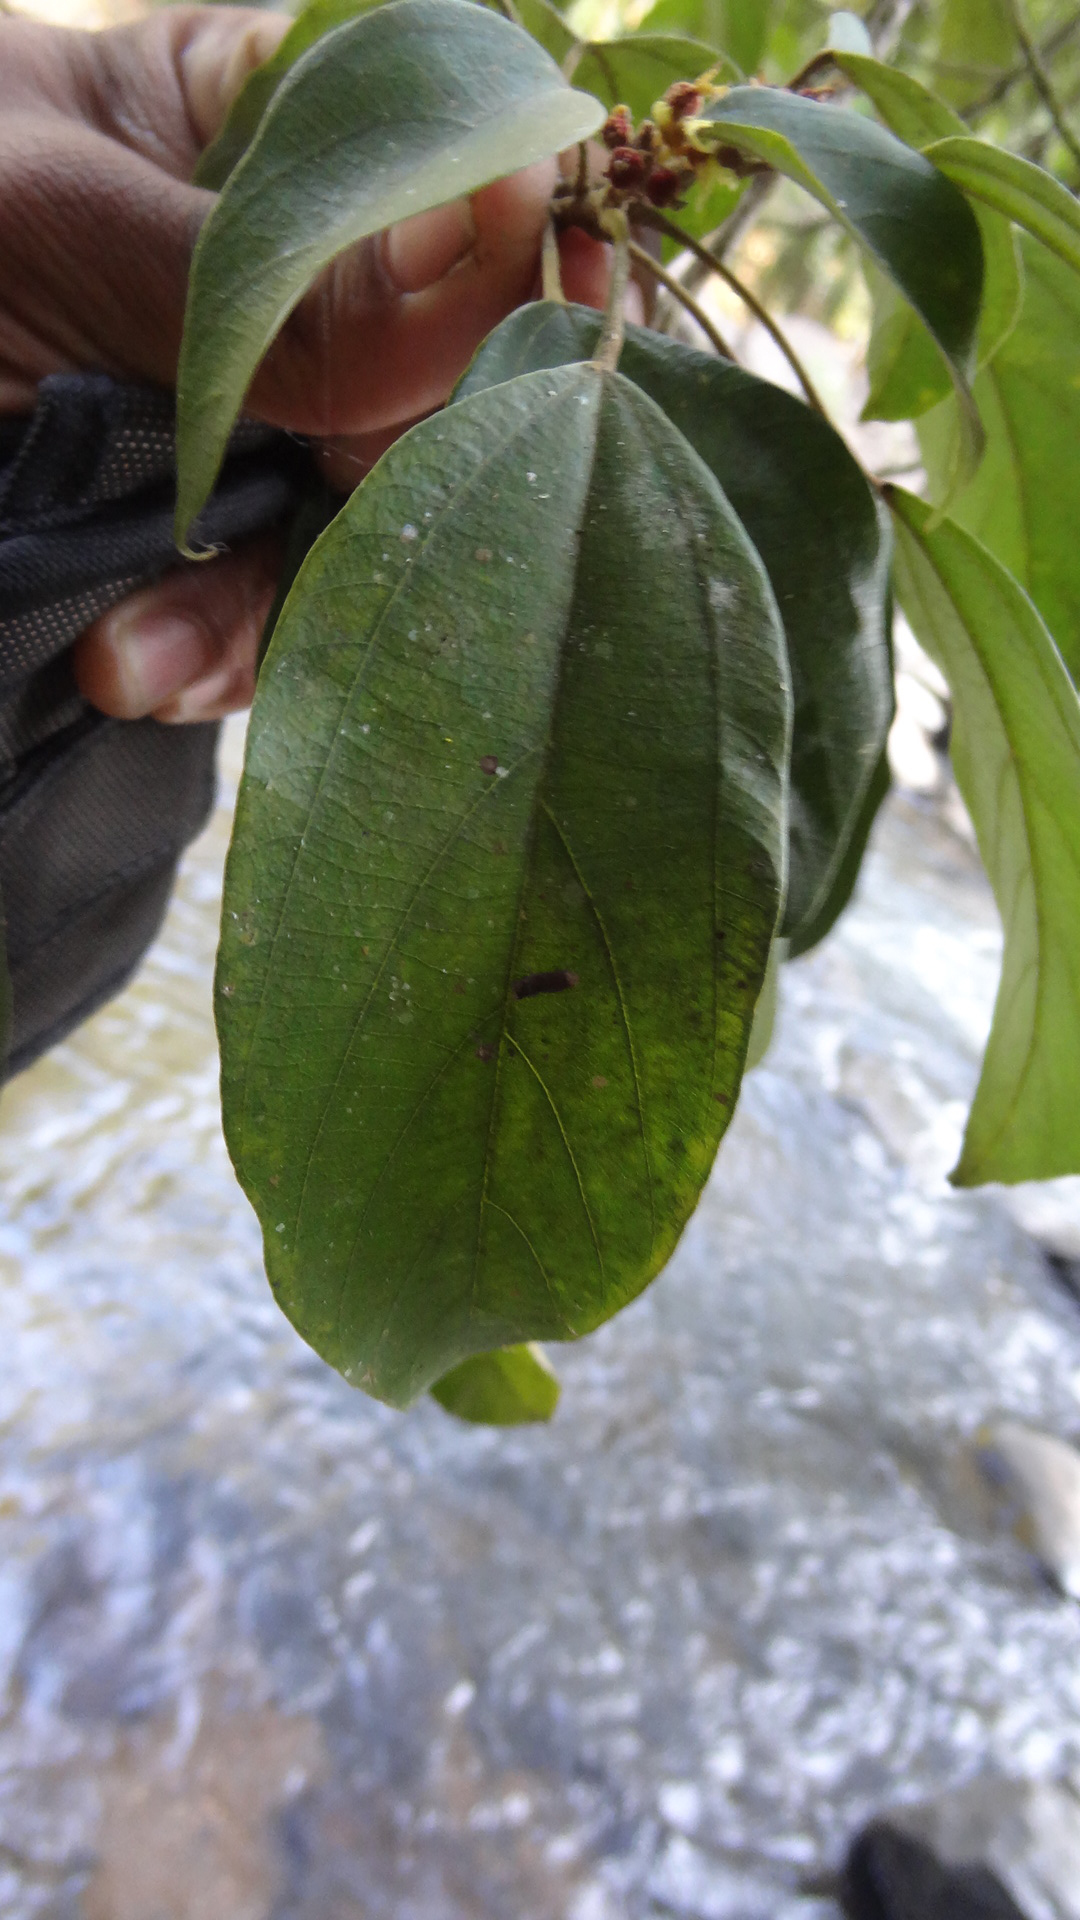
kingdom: Plantae
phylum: Tracheophyta
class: Magnoliopsida
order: Malpighiales
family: Euphorbiaceae
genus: Mallotus
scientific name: Mallotus philippensis
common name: Kamala tree
